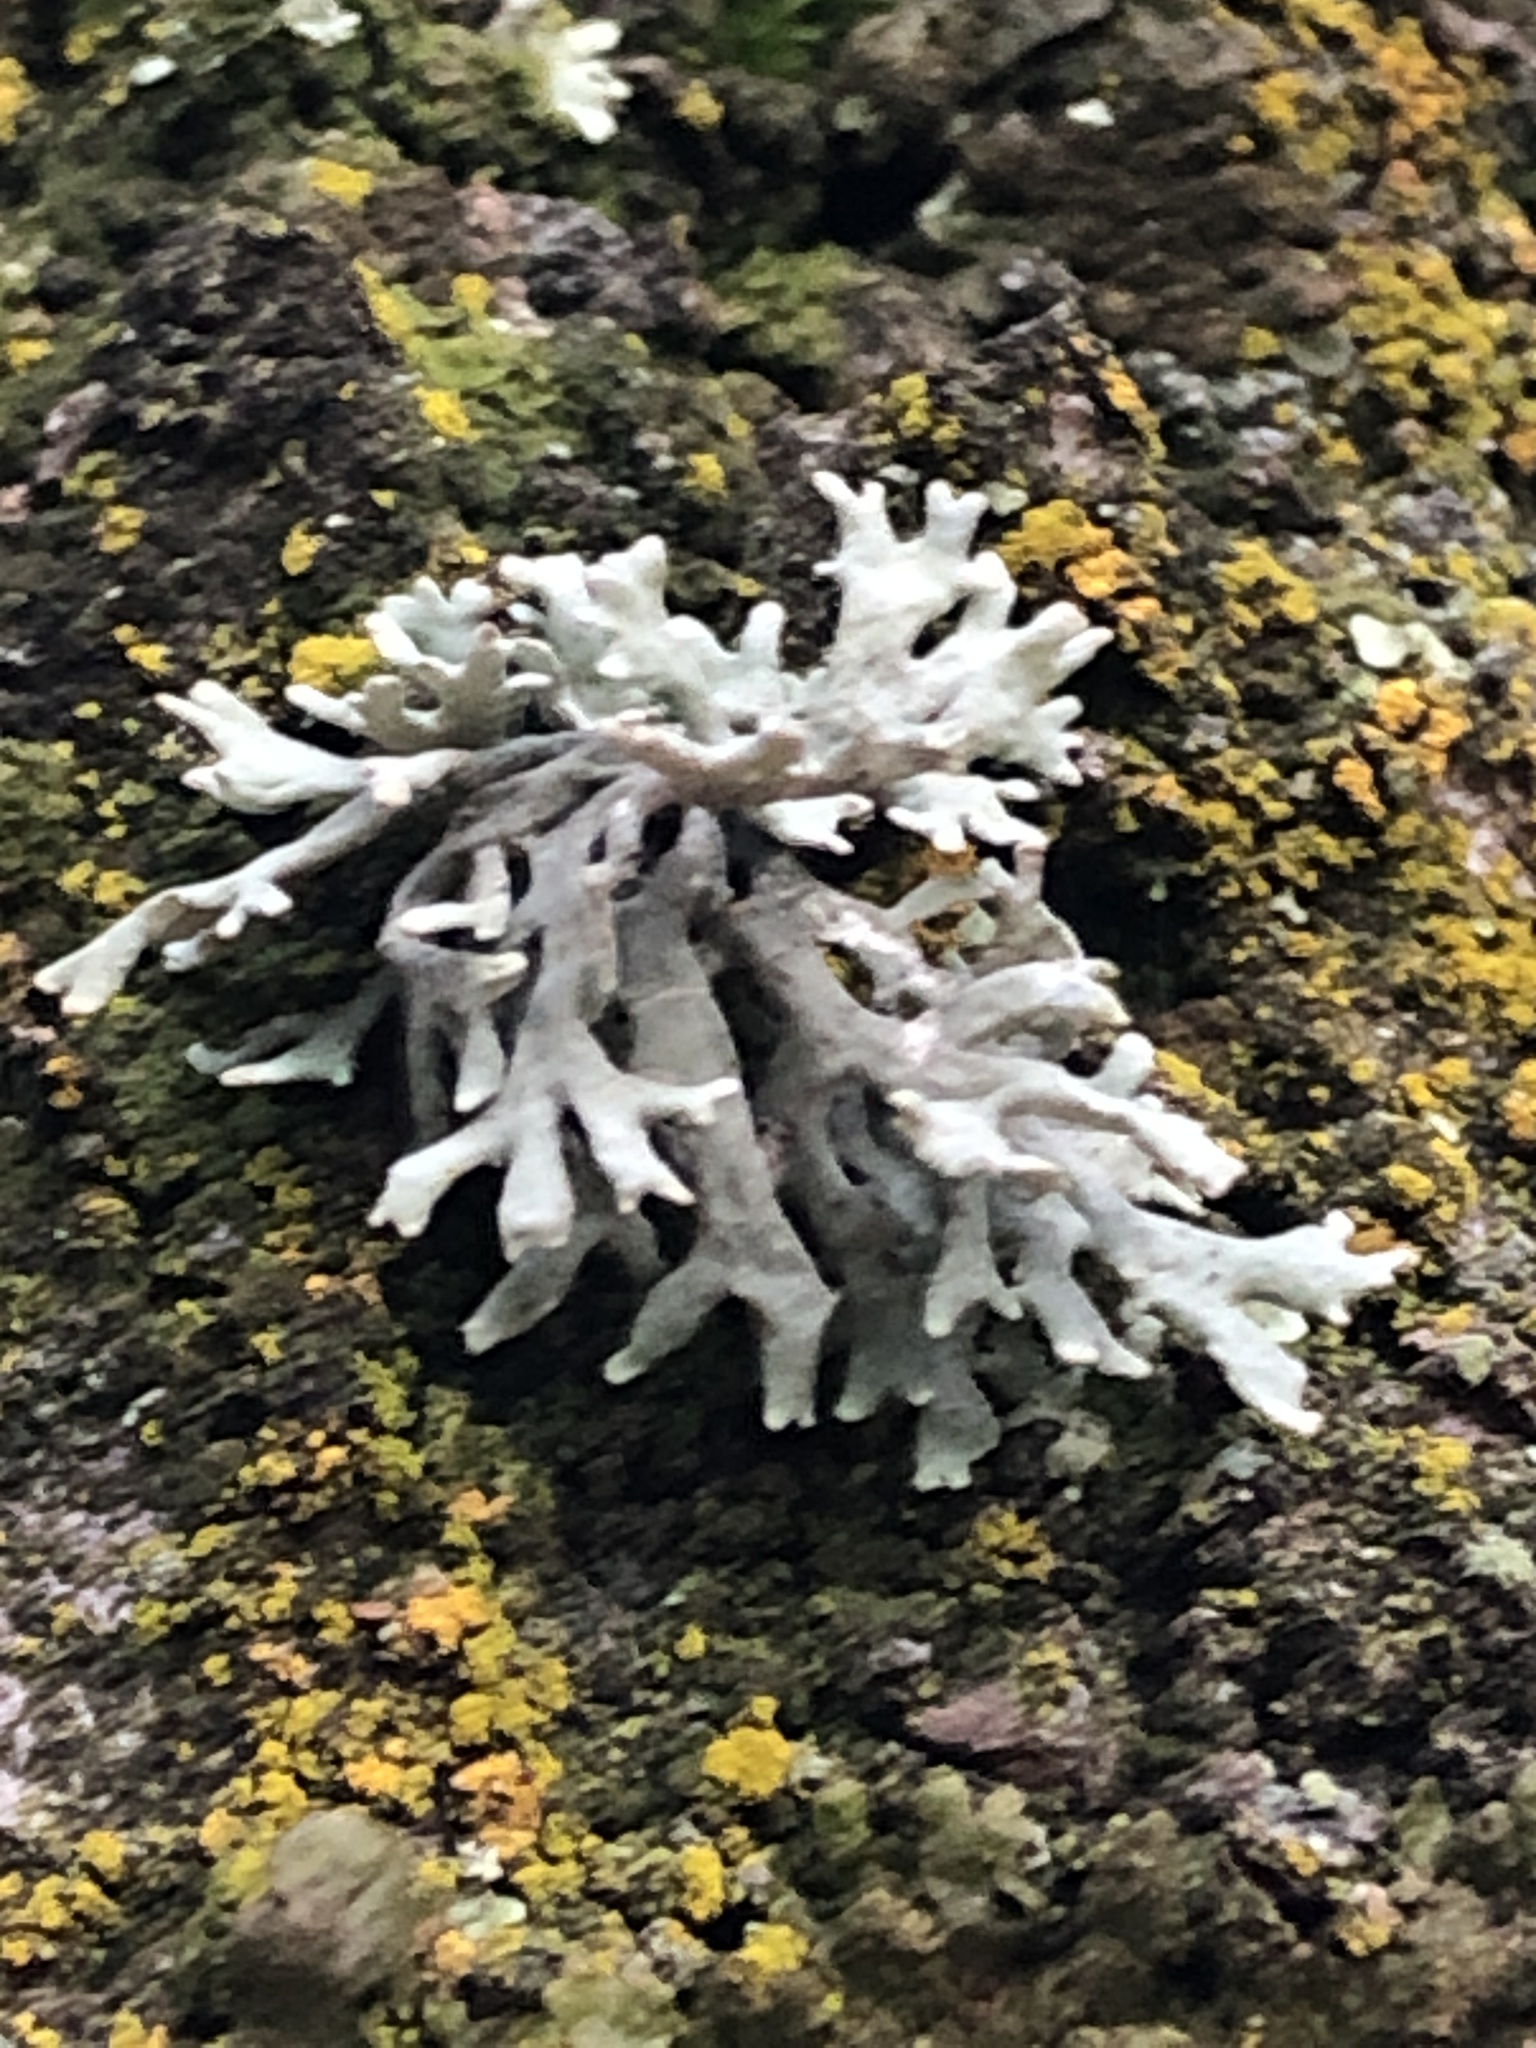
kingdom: Fungi
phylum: Ascomycota
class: Lecanoromycetes
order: Lecanorales
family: Parmeliaceae
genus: Evernia
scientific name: Evernia prunastri
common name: Oak moss
